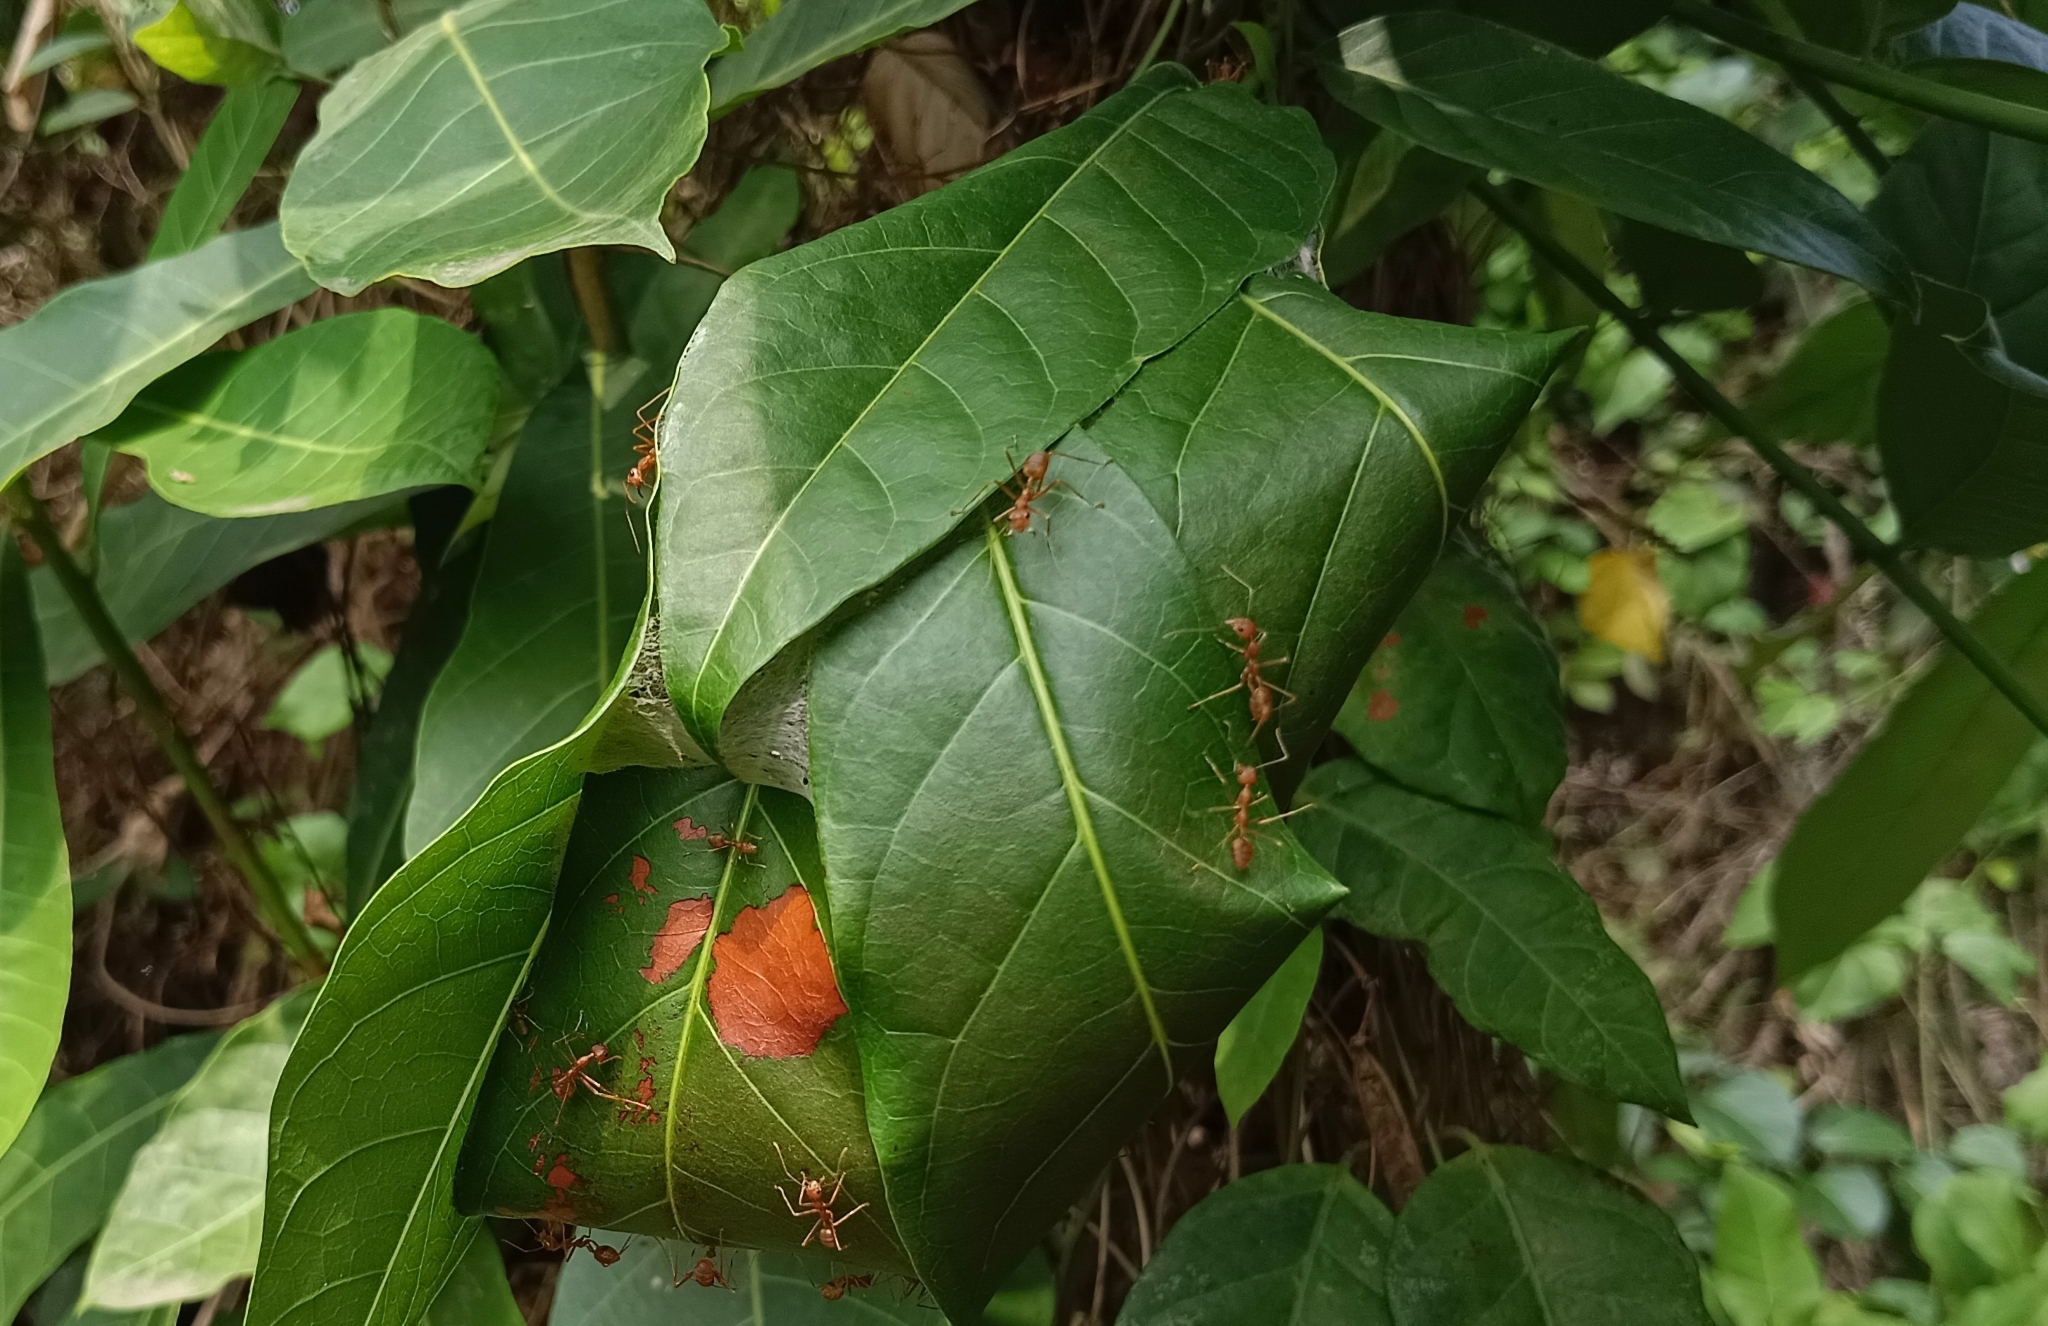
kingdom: Animalia
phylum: Arthropoda
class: Insecta
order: Hymenoptera
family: Formicidae
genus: Oecophylla
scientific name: Oecophylla smaragdina
